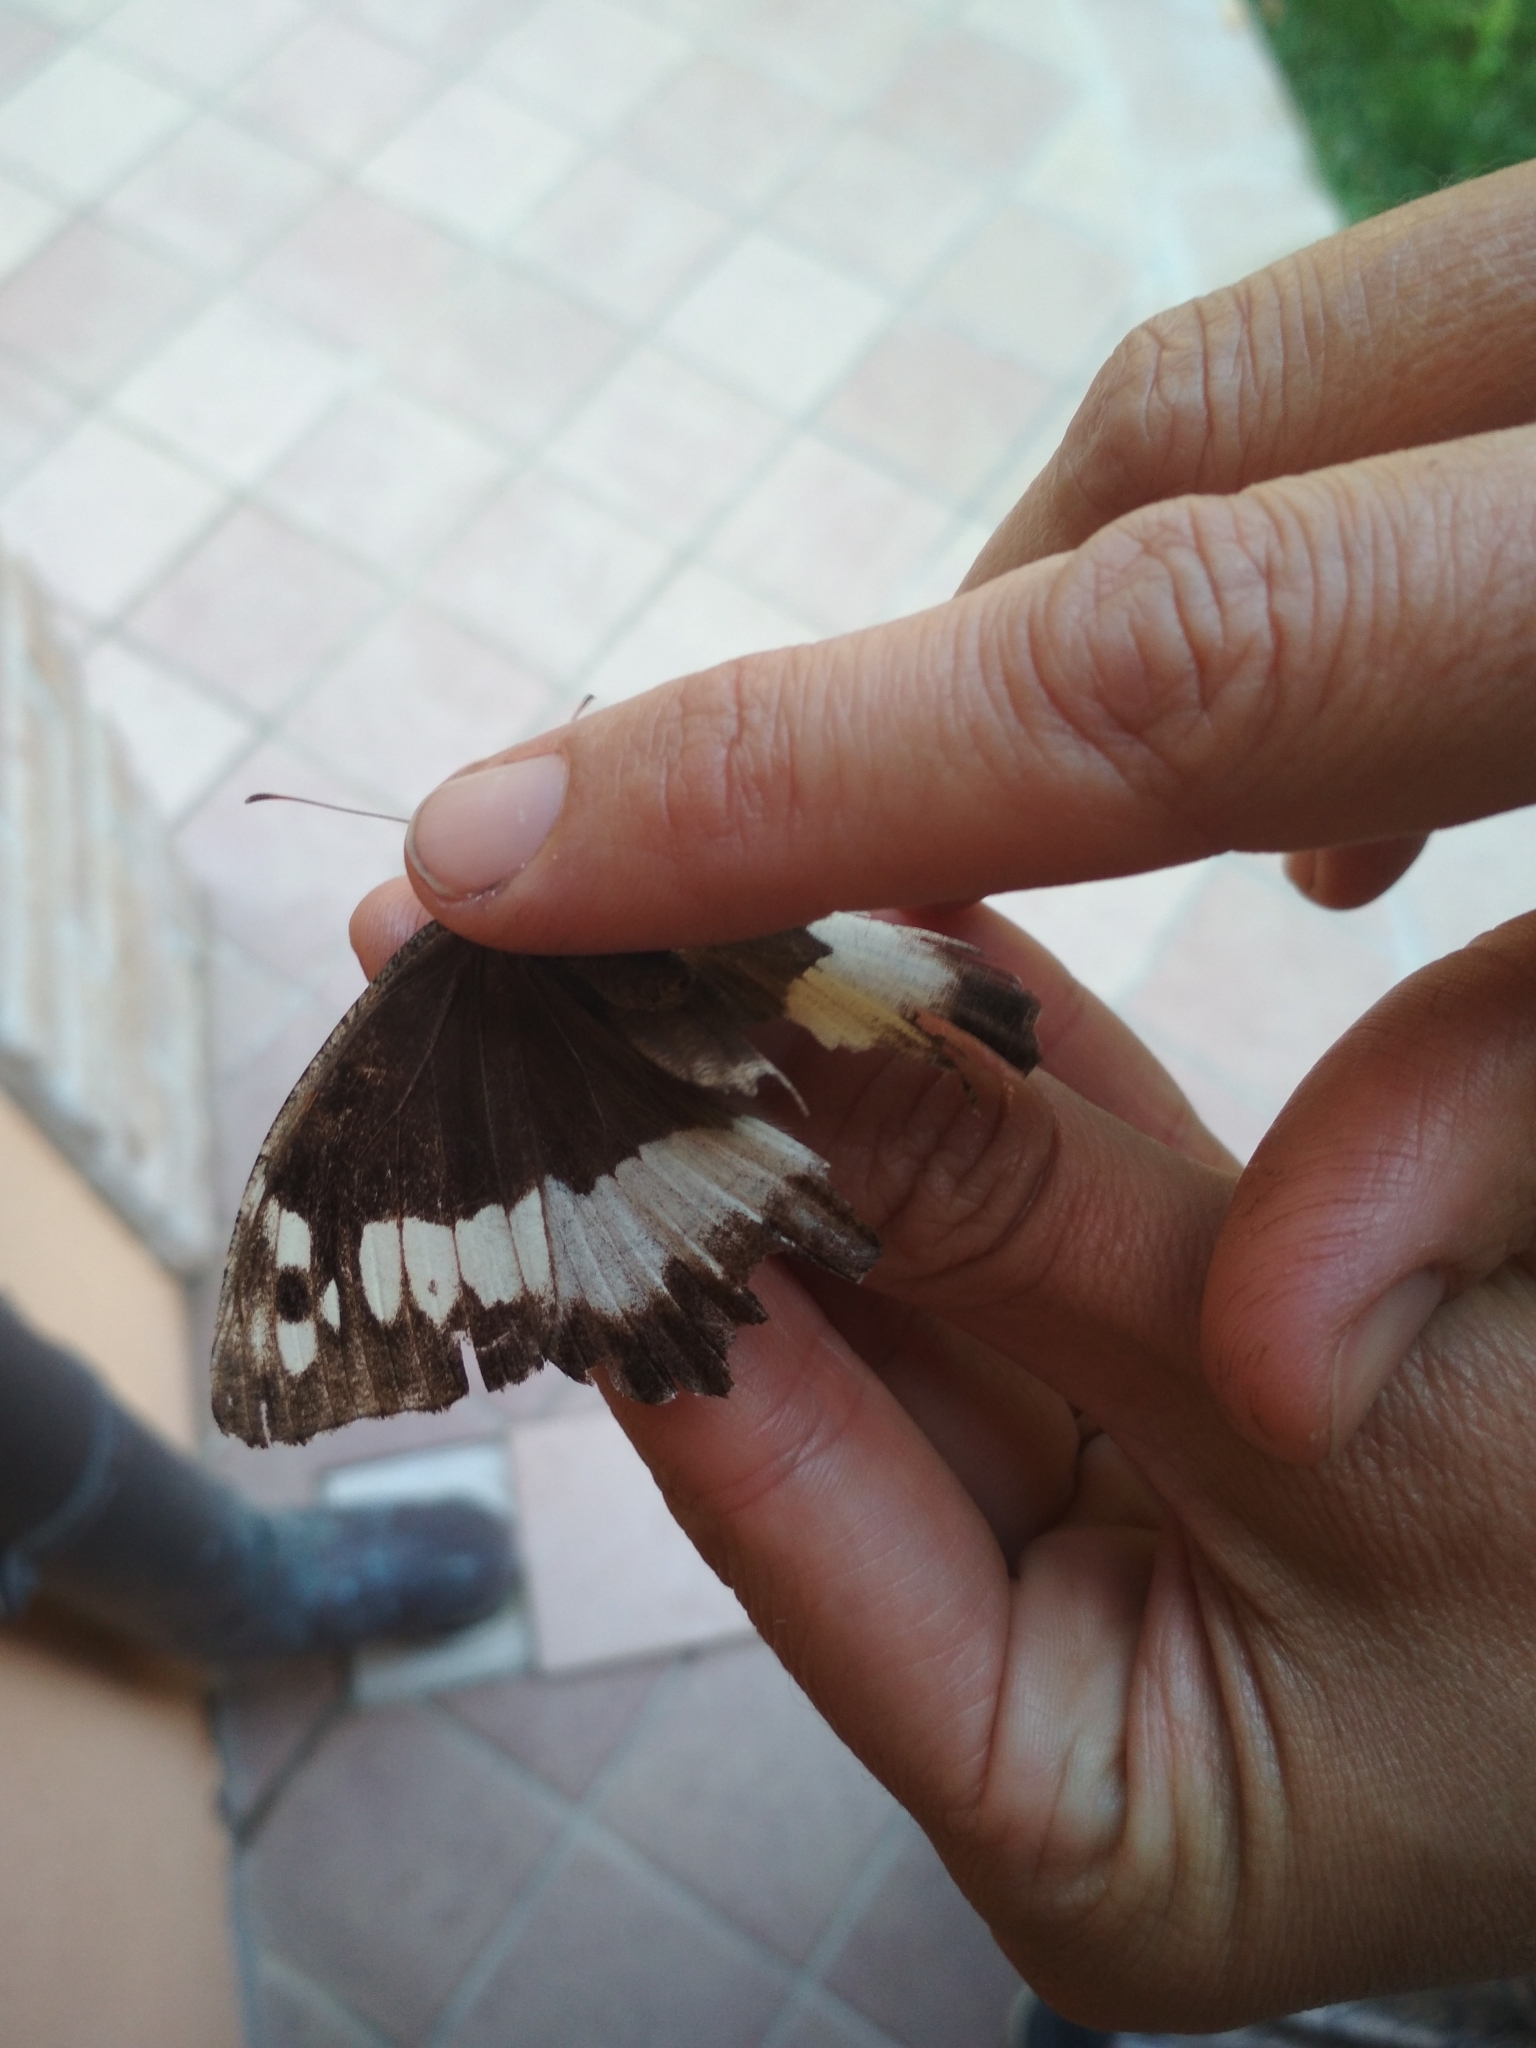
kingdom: Animalia
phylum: Arthropoda
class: Insecta
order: Lepidoptera
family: Lycaenidae
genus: Loweia
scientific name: Loweia tityrus
